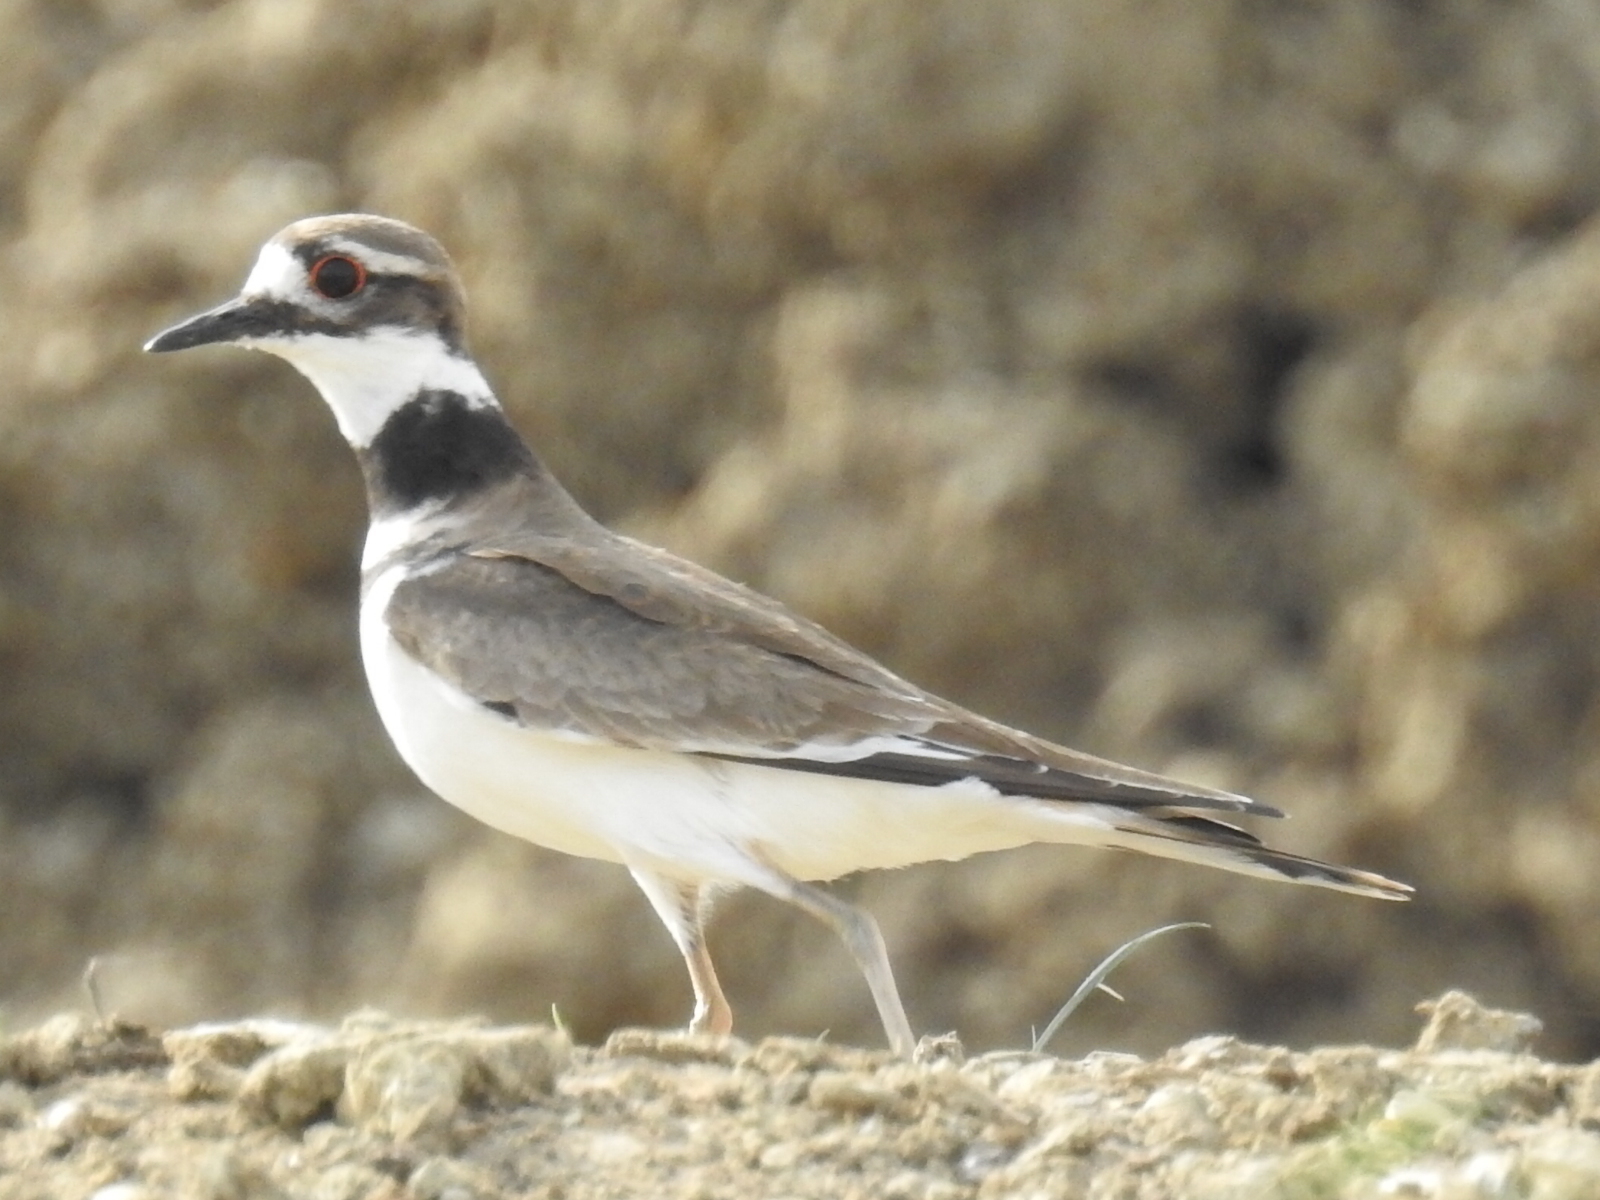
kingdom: Animalia
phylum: Chordata
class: Aves
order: Charadriiformes
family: Charadriidae
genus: Charadrius
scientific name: Charadrius vociferus
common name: Killdeer
